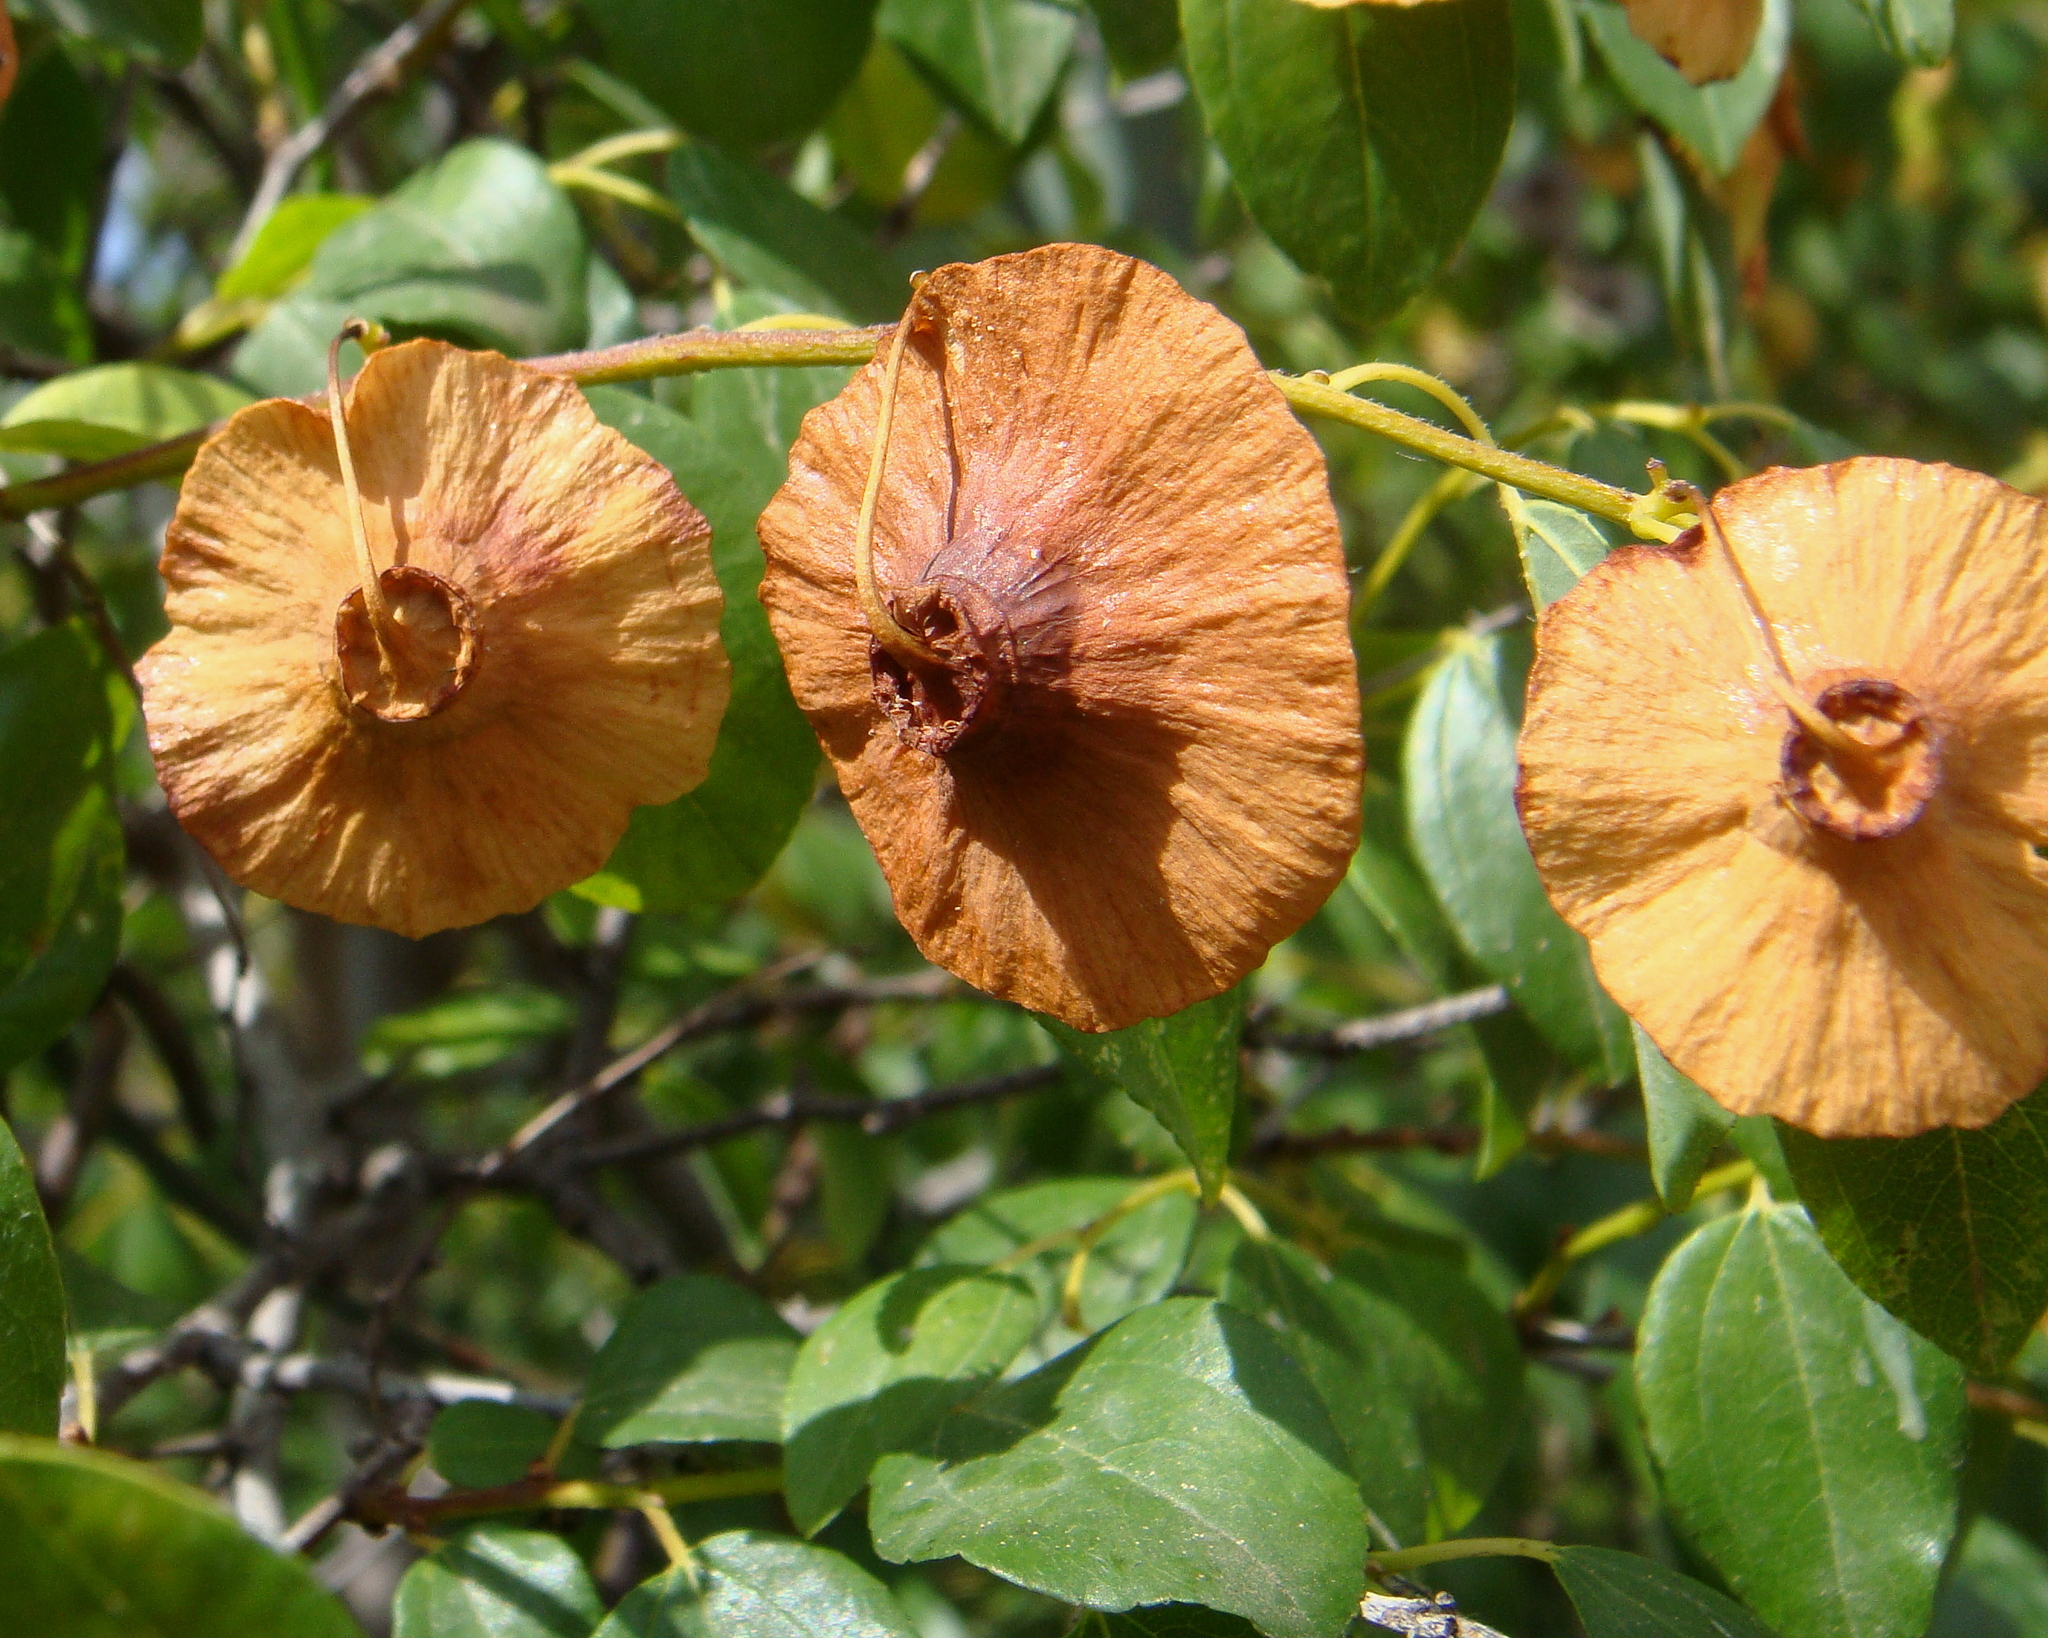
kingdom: Plantae
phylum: Tracheophyta
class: Magnoliopsida
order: Rosales
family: Rhamnaceae
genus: Paliurus
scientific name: Paliurus spina-christi
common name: Jeruselem thorn
